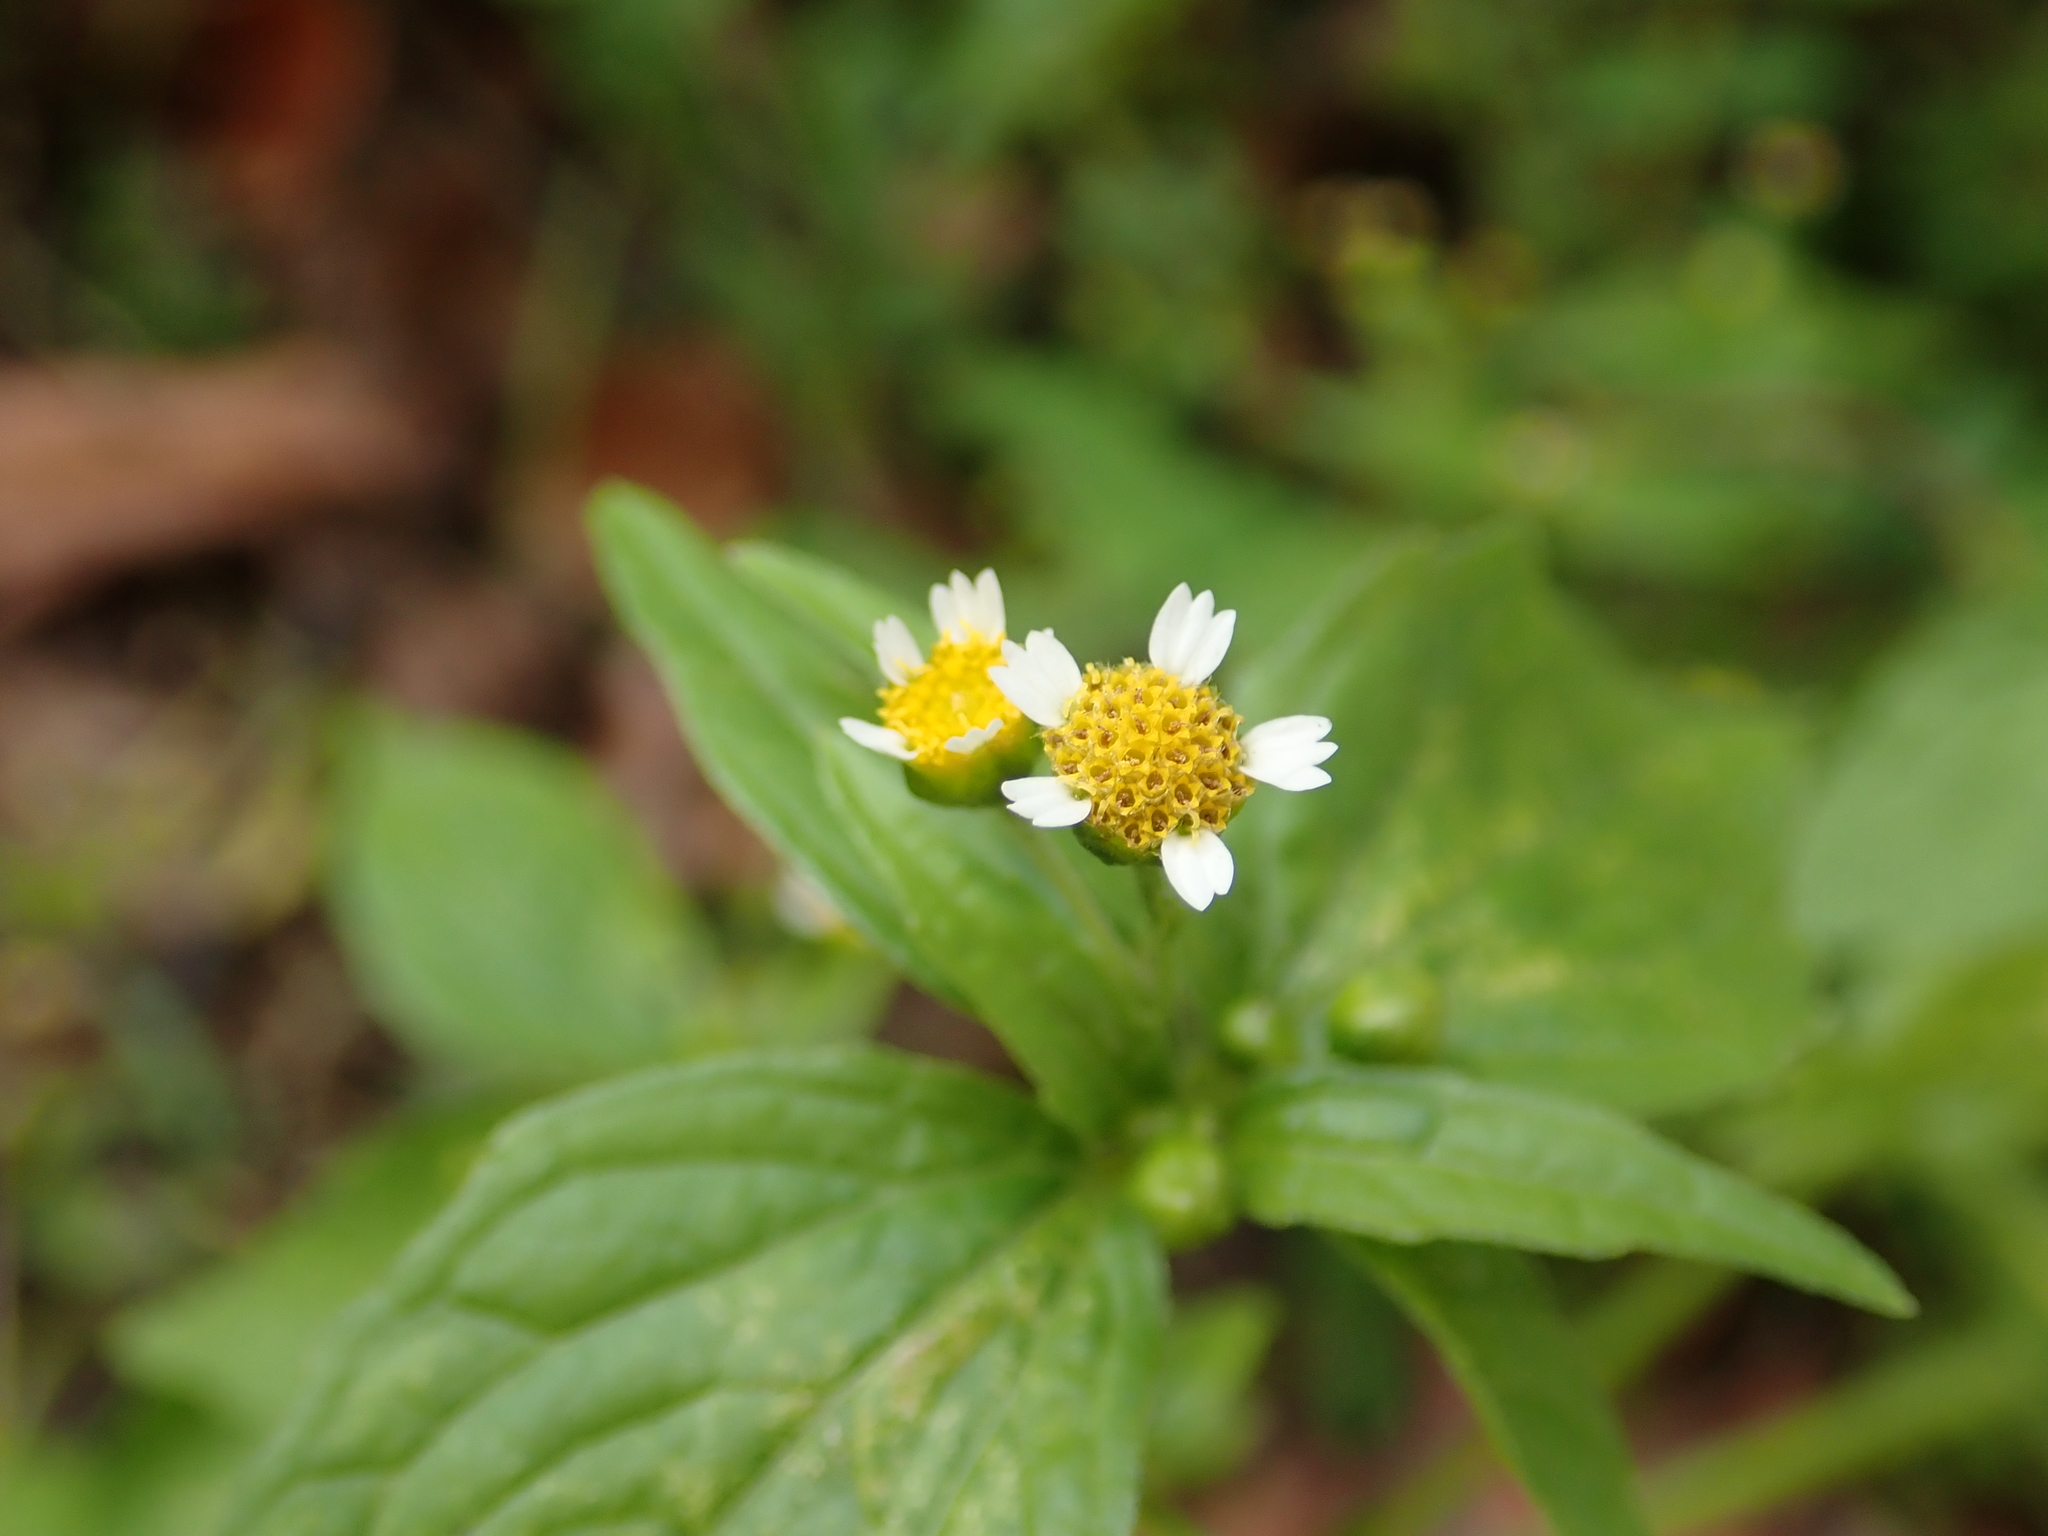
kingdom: Plantae
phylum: Tracheophyta
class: Magnoliopsida
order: Asterales
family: Asteraceae
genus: Galinsoga
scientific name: Galinsoga parviflora
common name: Gallant soldier
